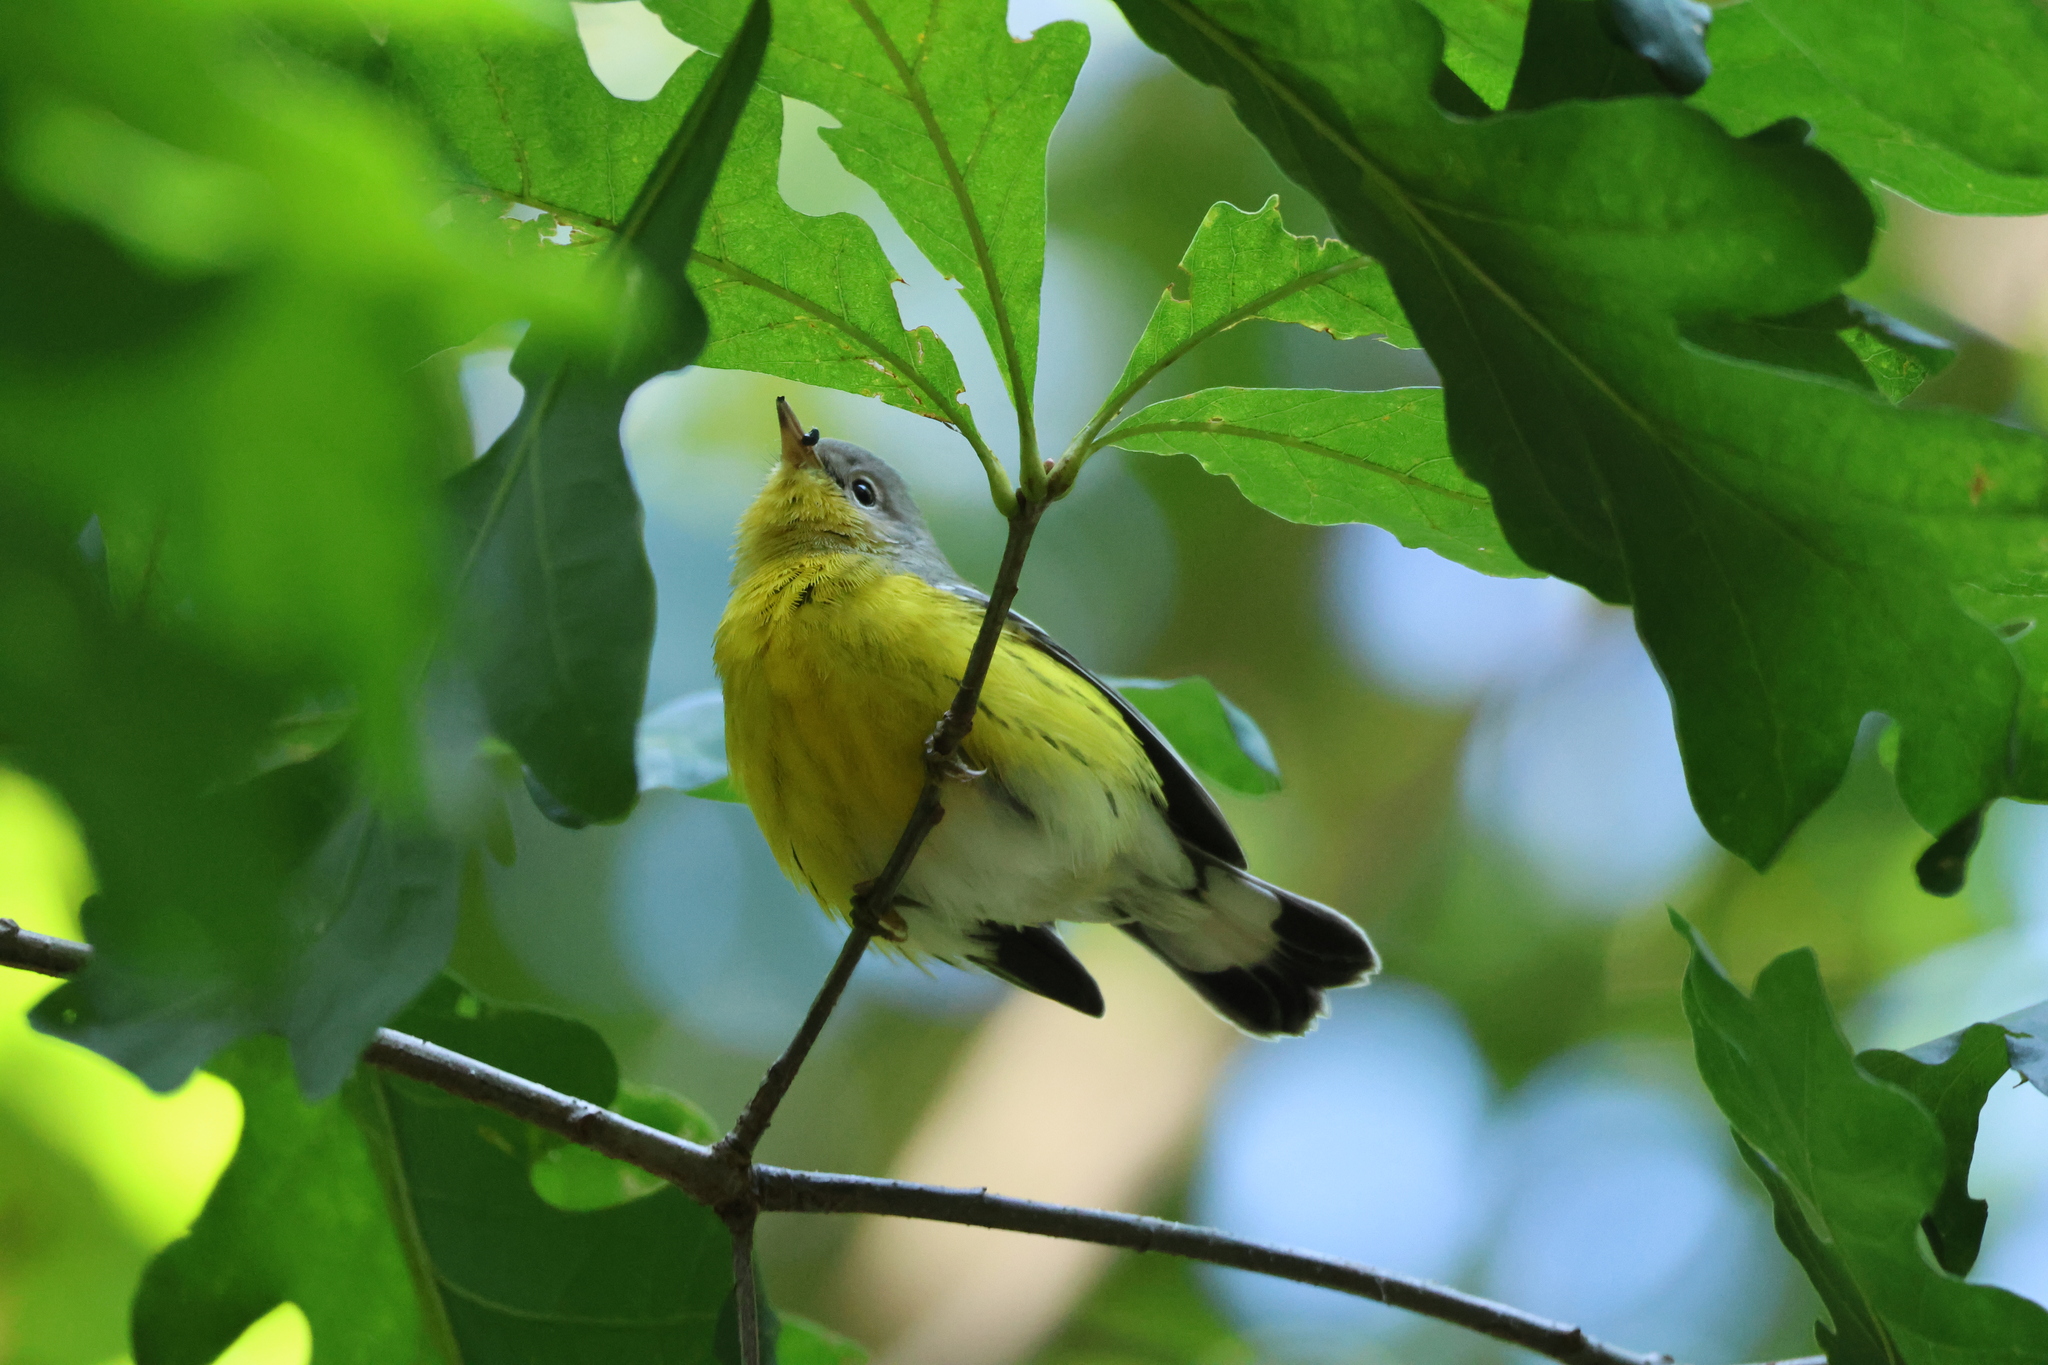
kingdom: Animalia
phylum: Chordata
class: Aves
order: Passeriformes
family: Parulidae
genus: Setophaga
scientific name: Setophaga magnolia
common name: Magnolia warbler
